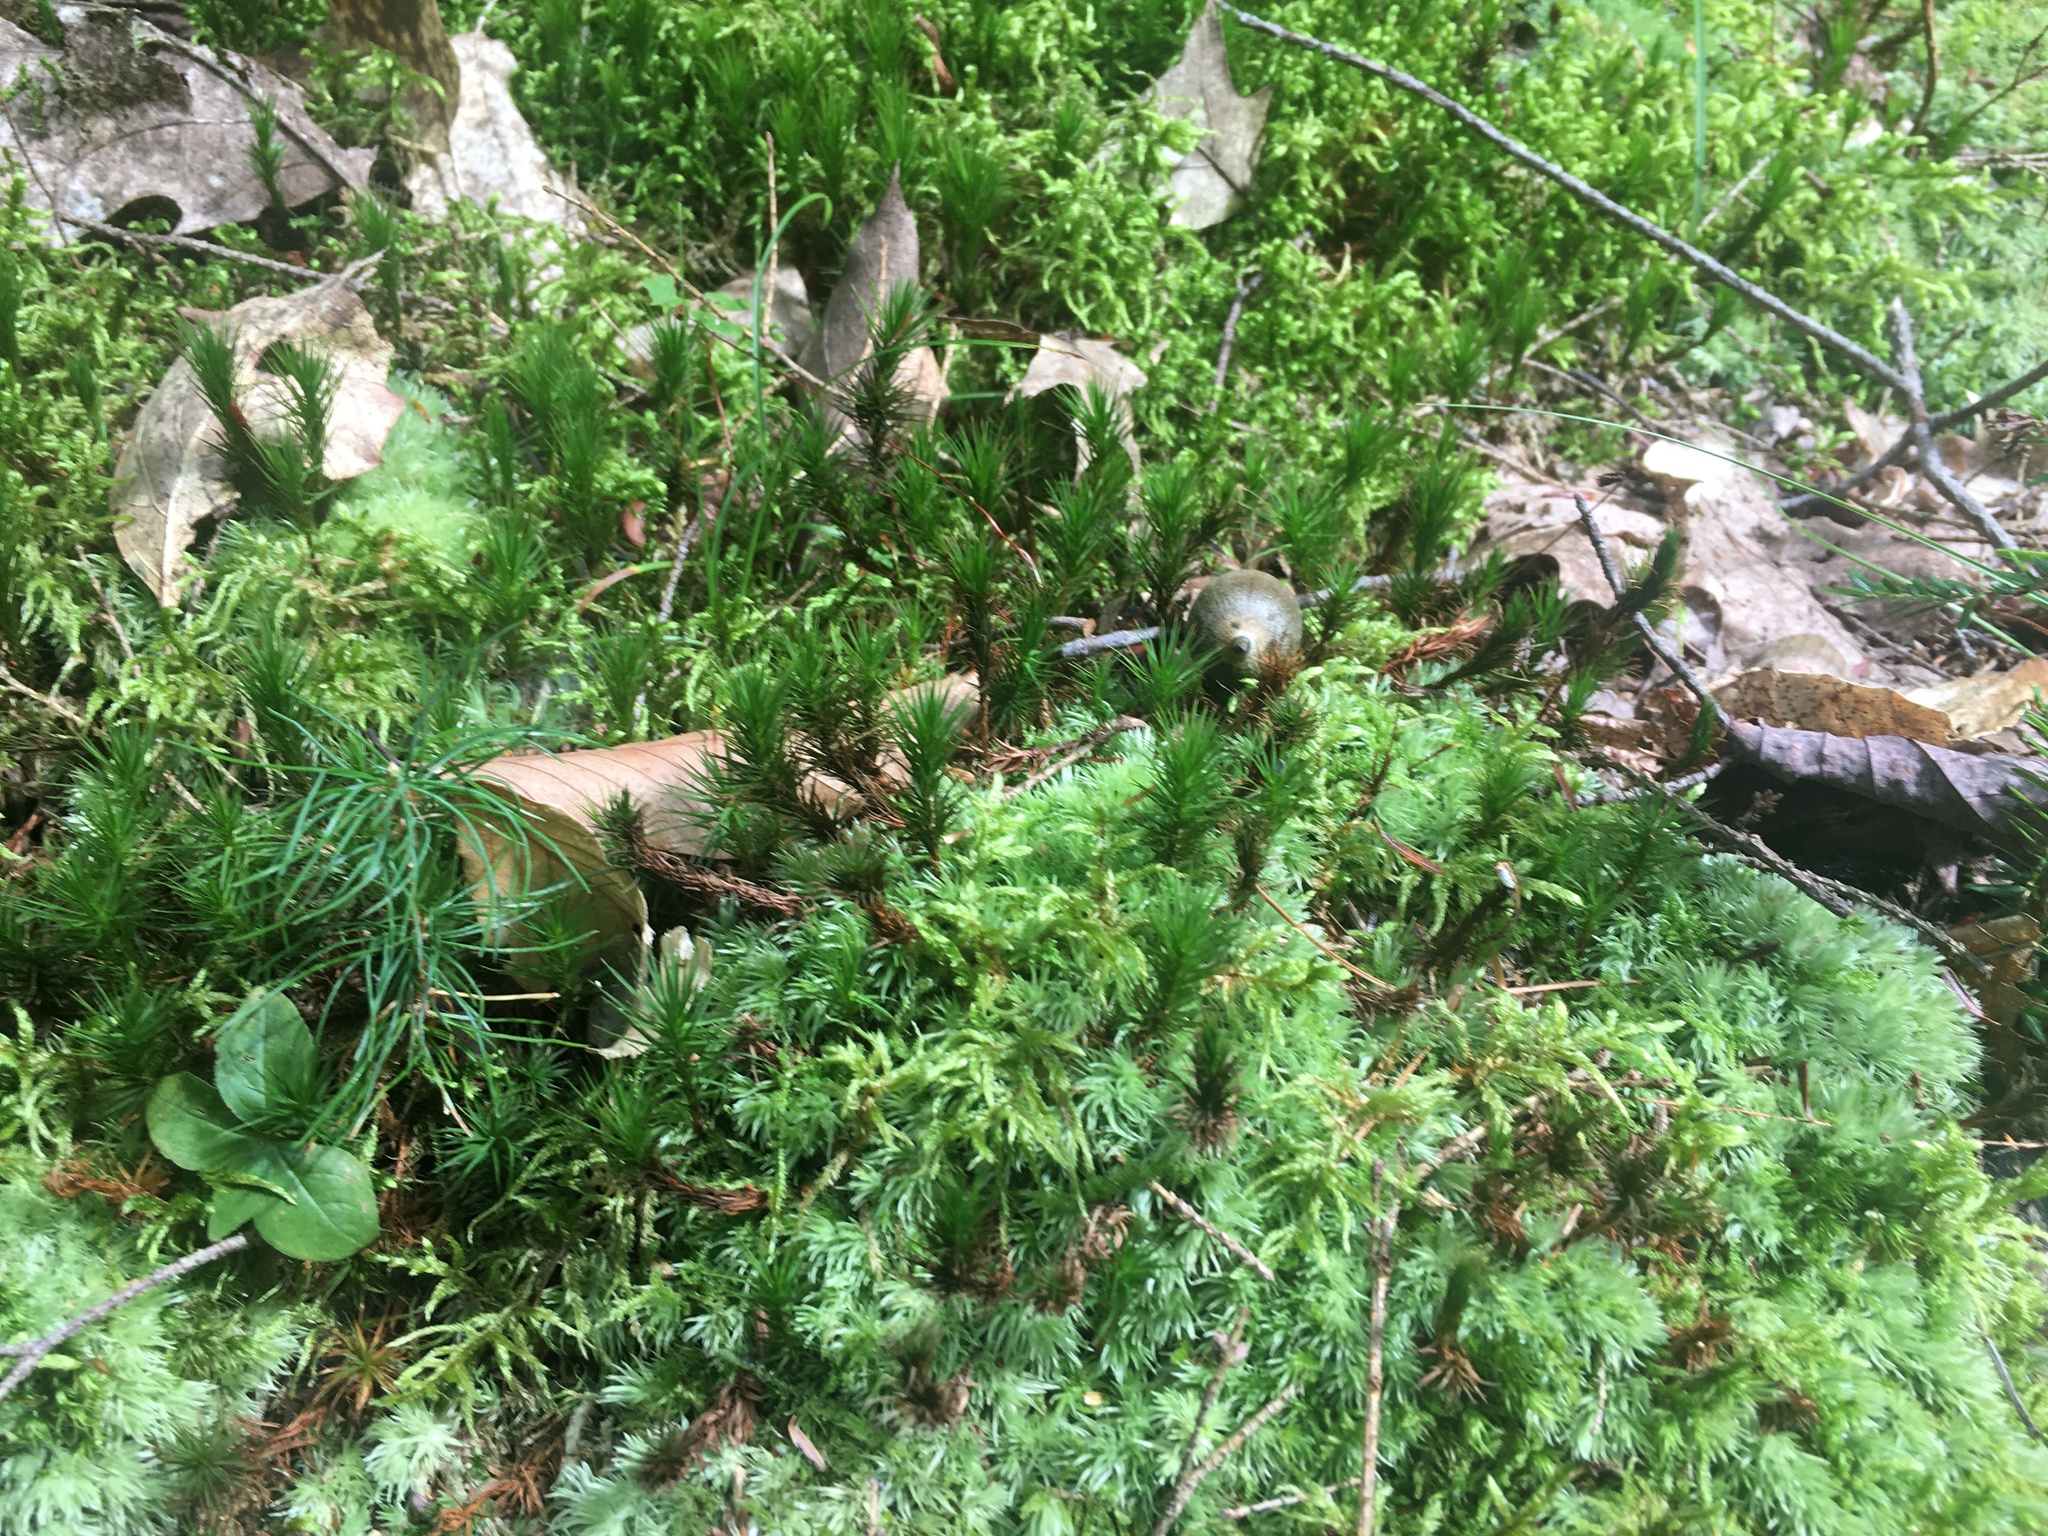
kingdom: Plantae
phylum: Bryophyta
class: Bryopsida
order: Hypnales
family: Hylocomiaceae
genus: Pleurozium
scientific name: Pleurozium schreberi
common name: Red-stemmed feather moss
